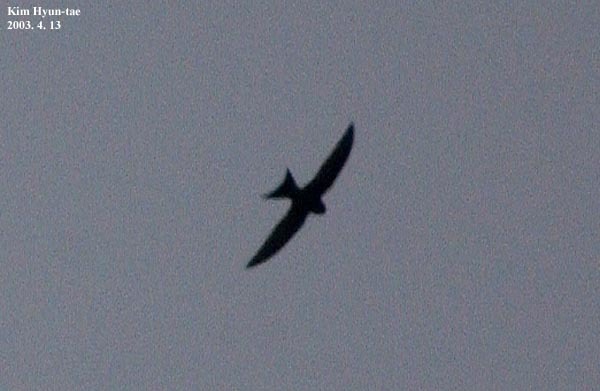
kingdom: Animalia
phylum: Chordata
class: Aves
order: Apodiformes
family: Apodidae
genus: Apus
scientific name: Apus pacificus
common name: Pacific swift
